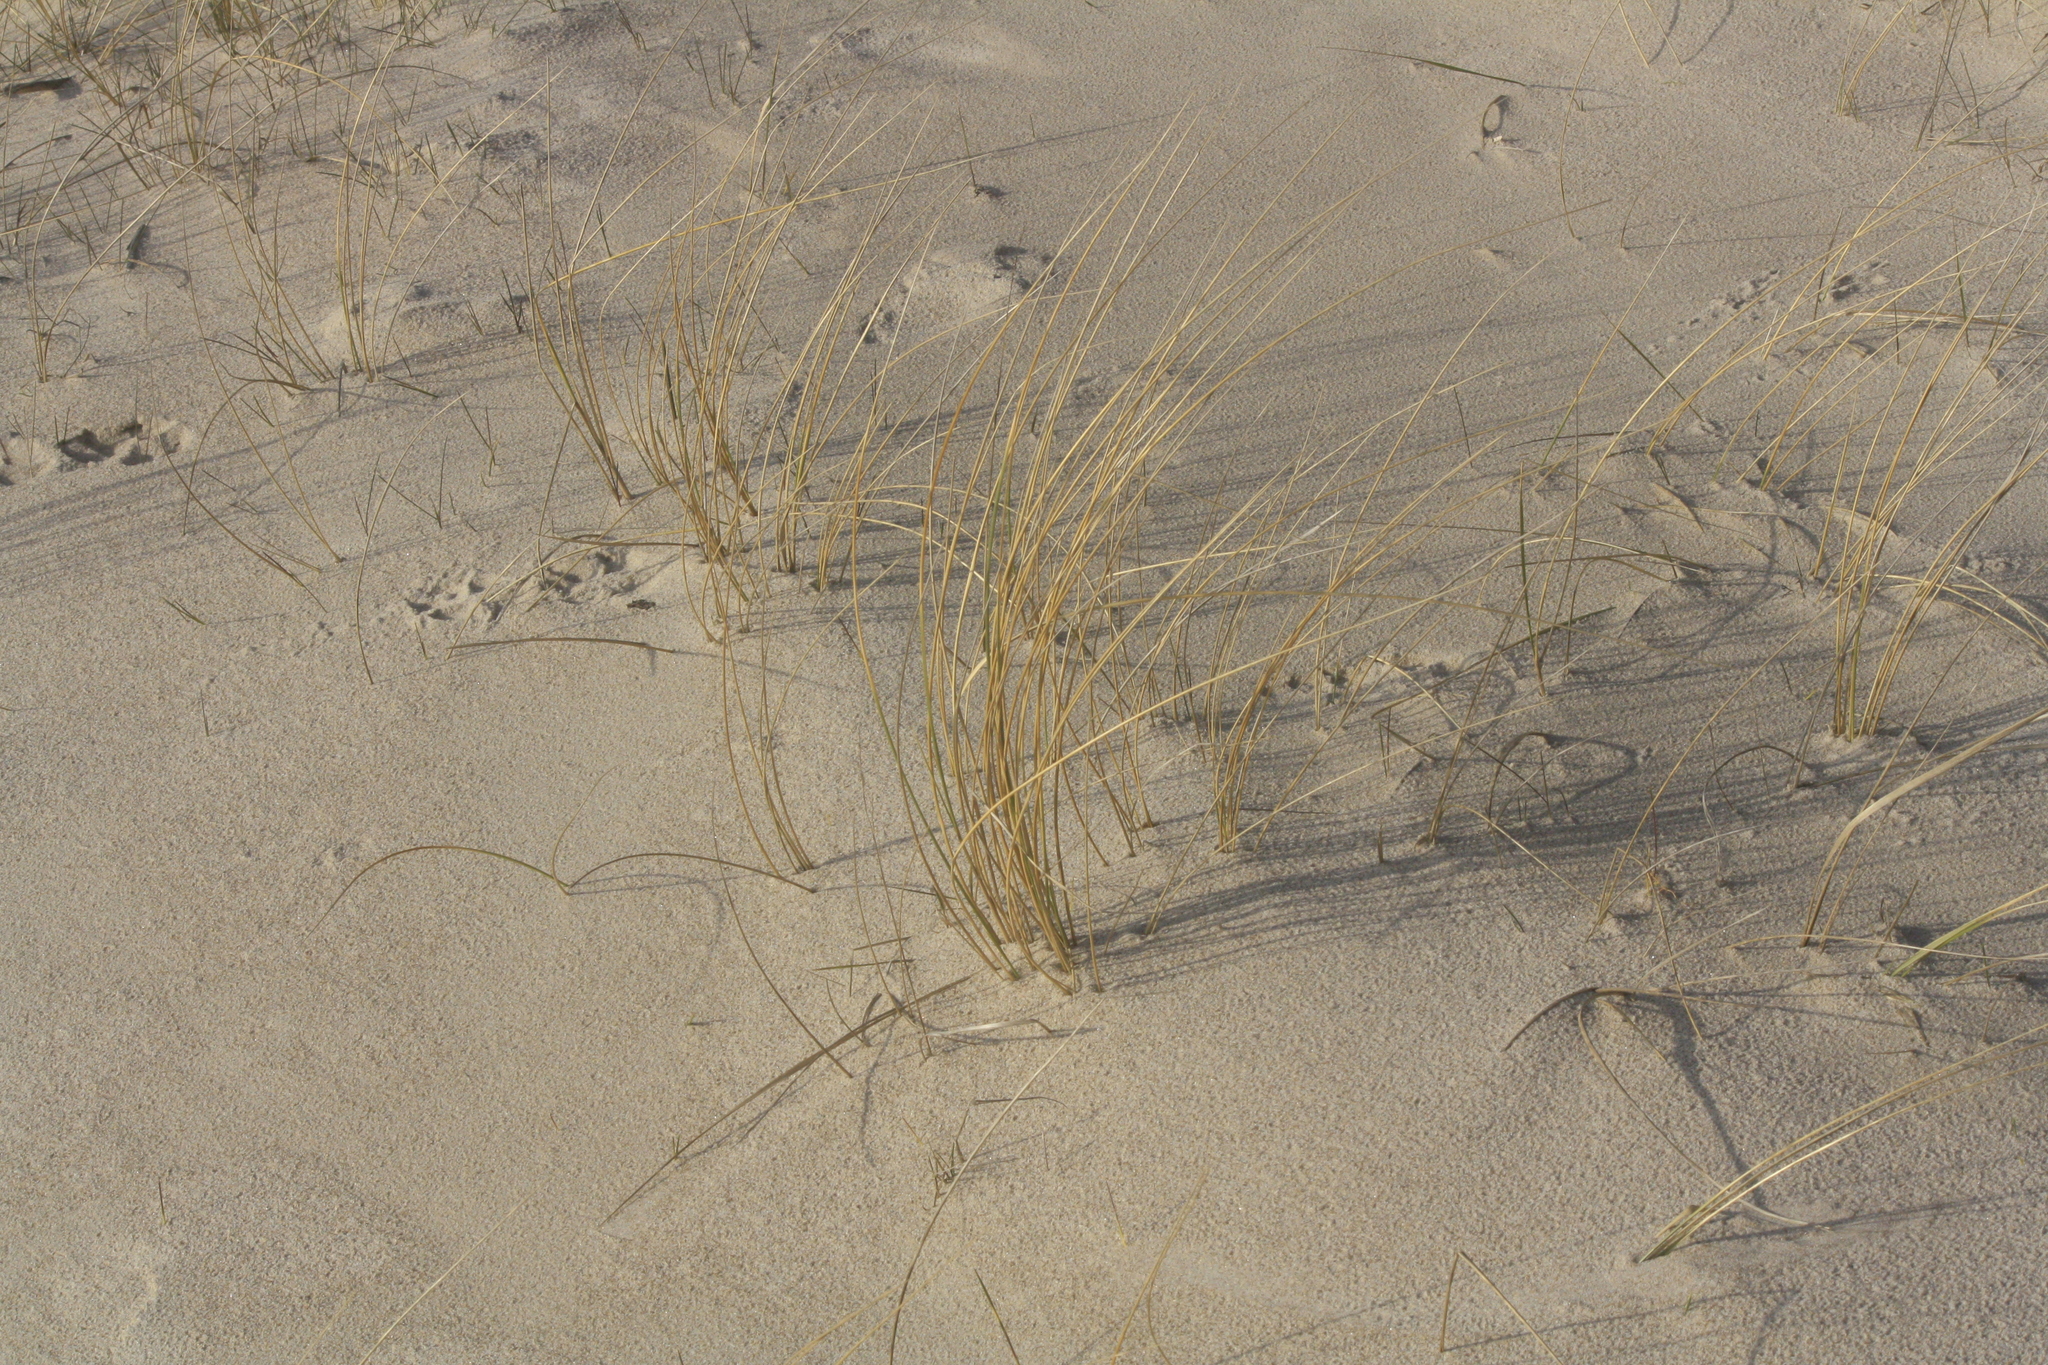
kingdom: Plantae
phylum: Tracheophyta
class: Liliopsida
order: Poales
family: Poaceae
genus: Calamagrostis
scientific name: Calamagrostis arenaria
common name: European beachgrass
